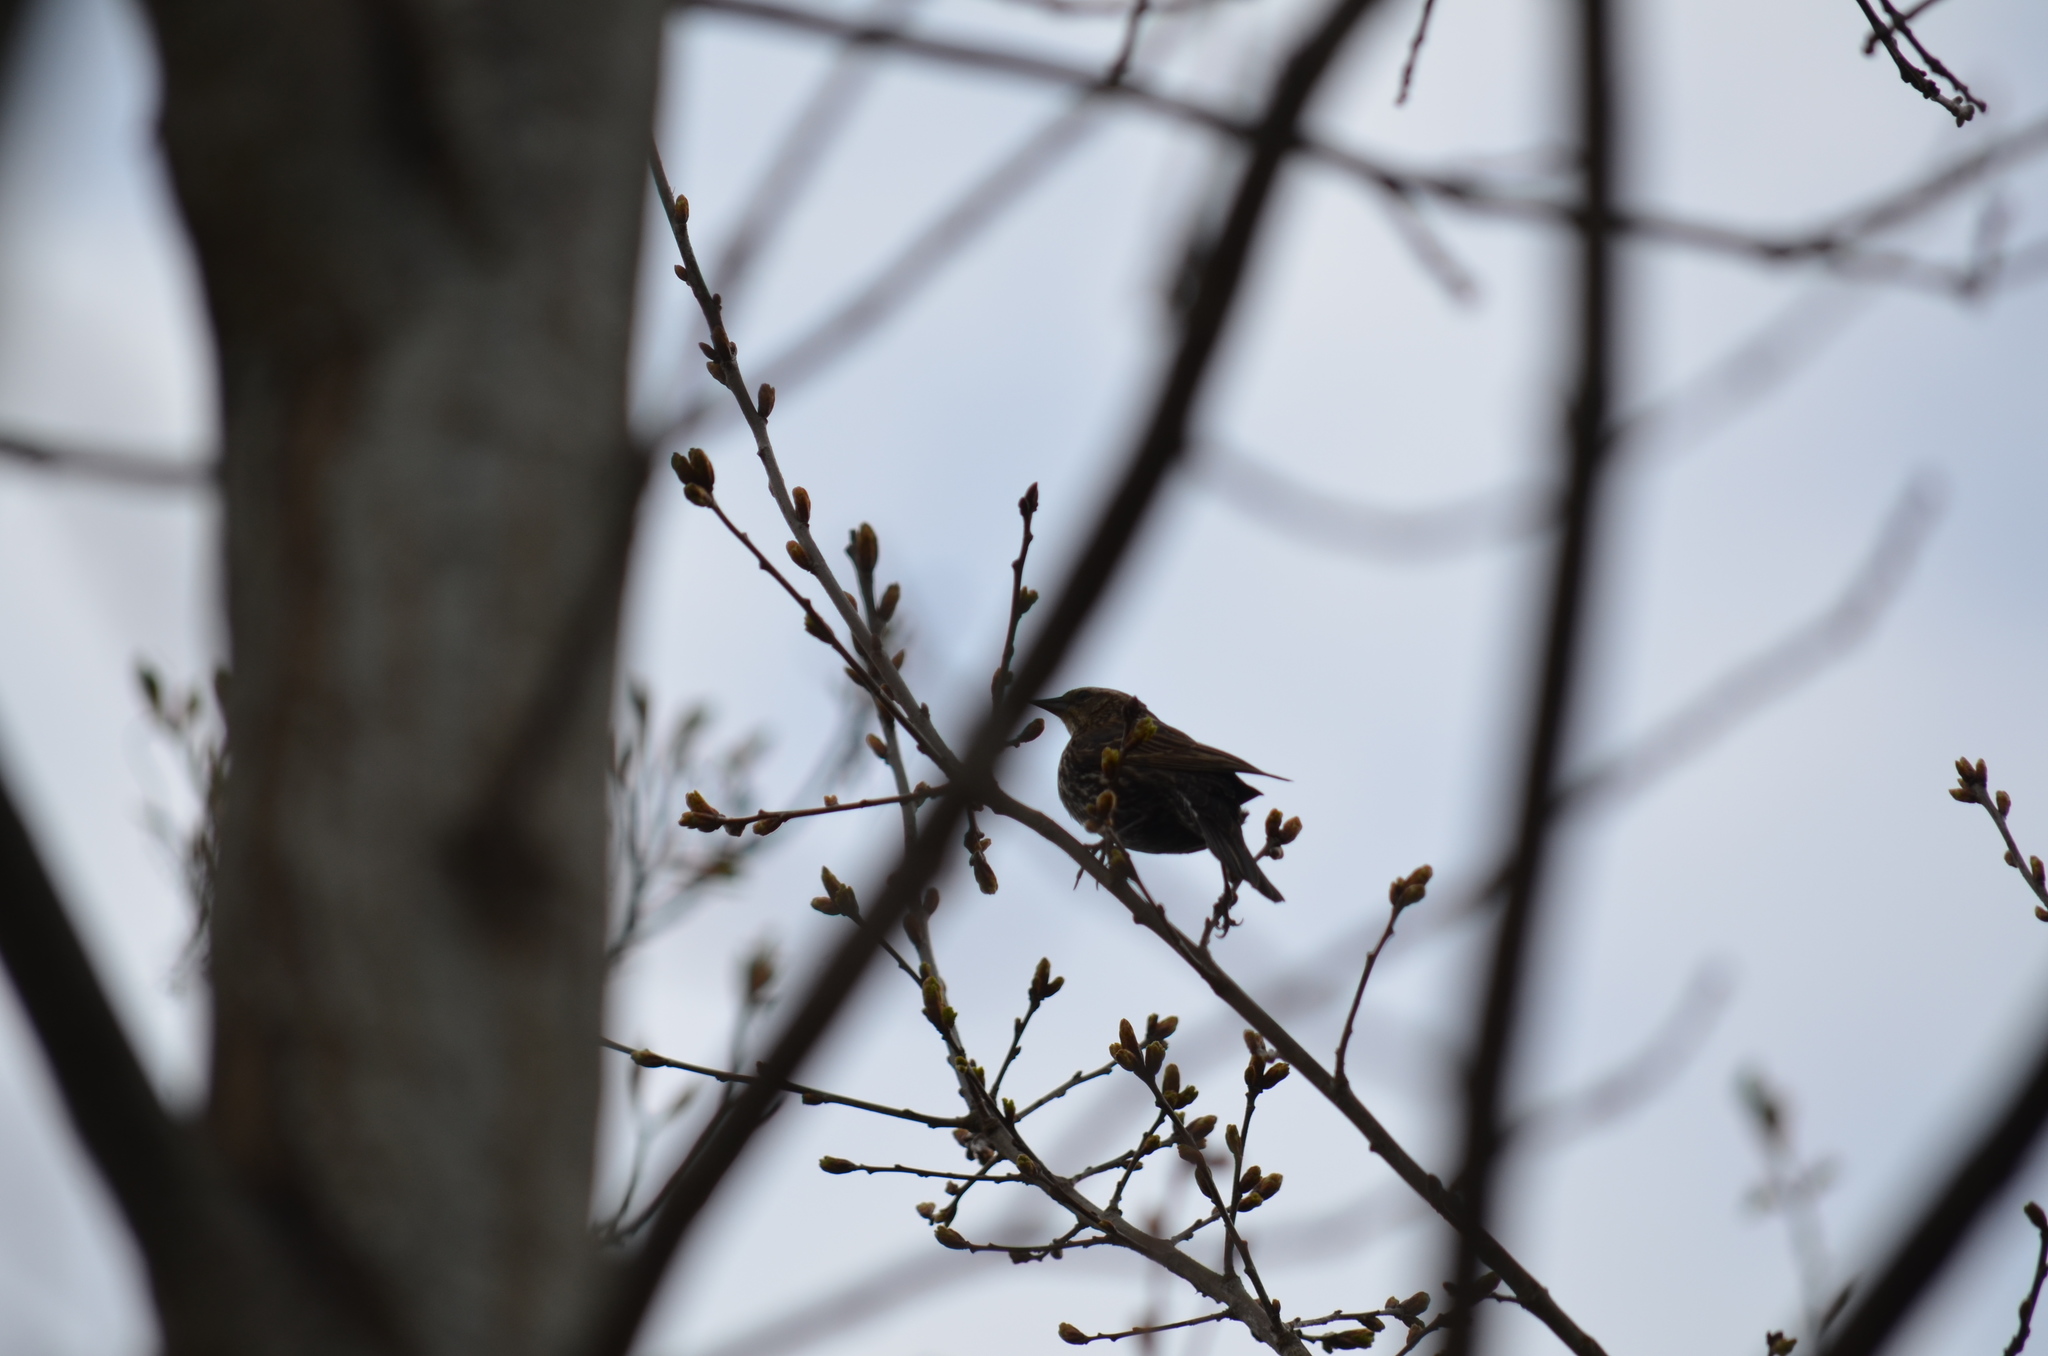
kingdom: Animalia
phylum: Chordata
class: Aves
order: Passeriformes
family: Icteridae
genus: Agelaius
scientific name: Agelaius phoeniceus
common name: Red-winged blackbird
